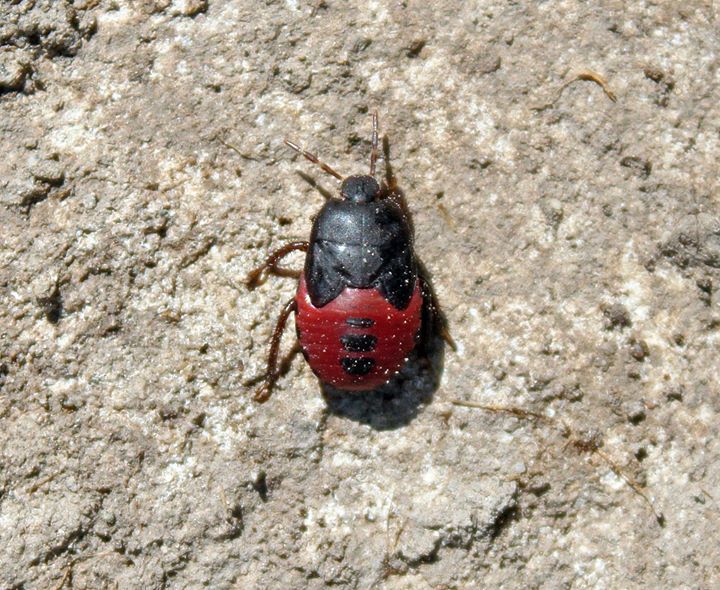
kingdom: Animalia
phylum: Arthropoda
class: Insecta
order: Hemiptera
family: Cydnidae
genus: Cydnus
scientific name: Cydnus aterrimus
